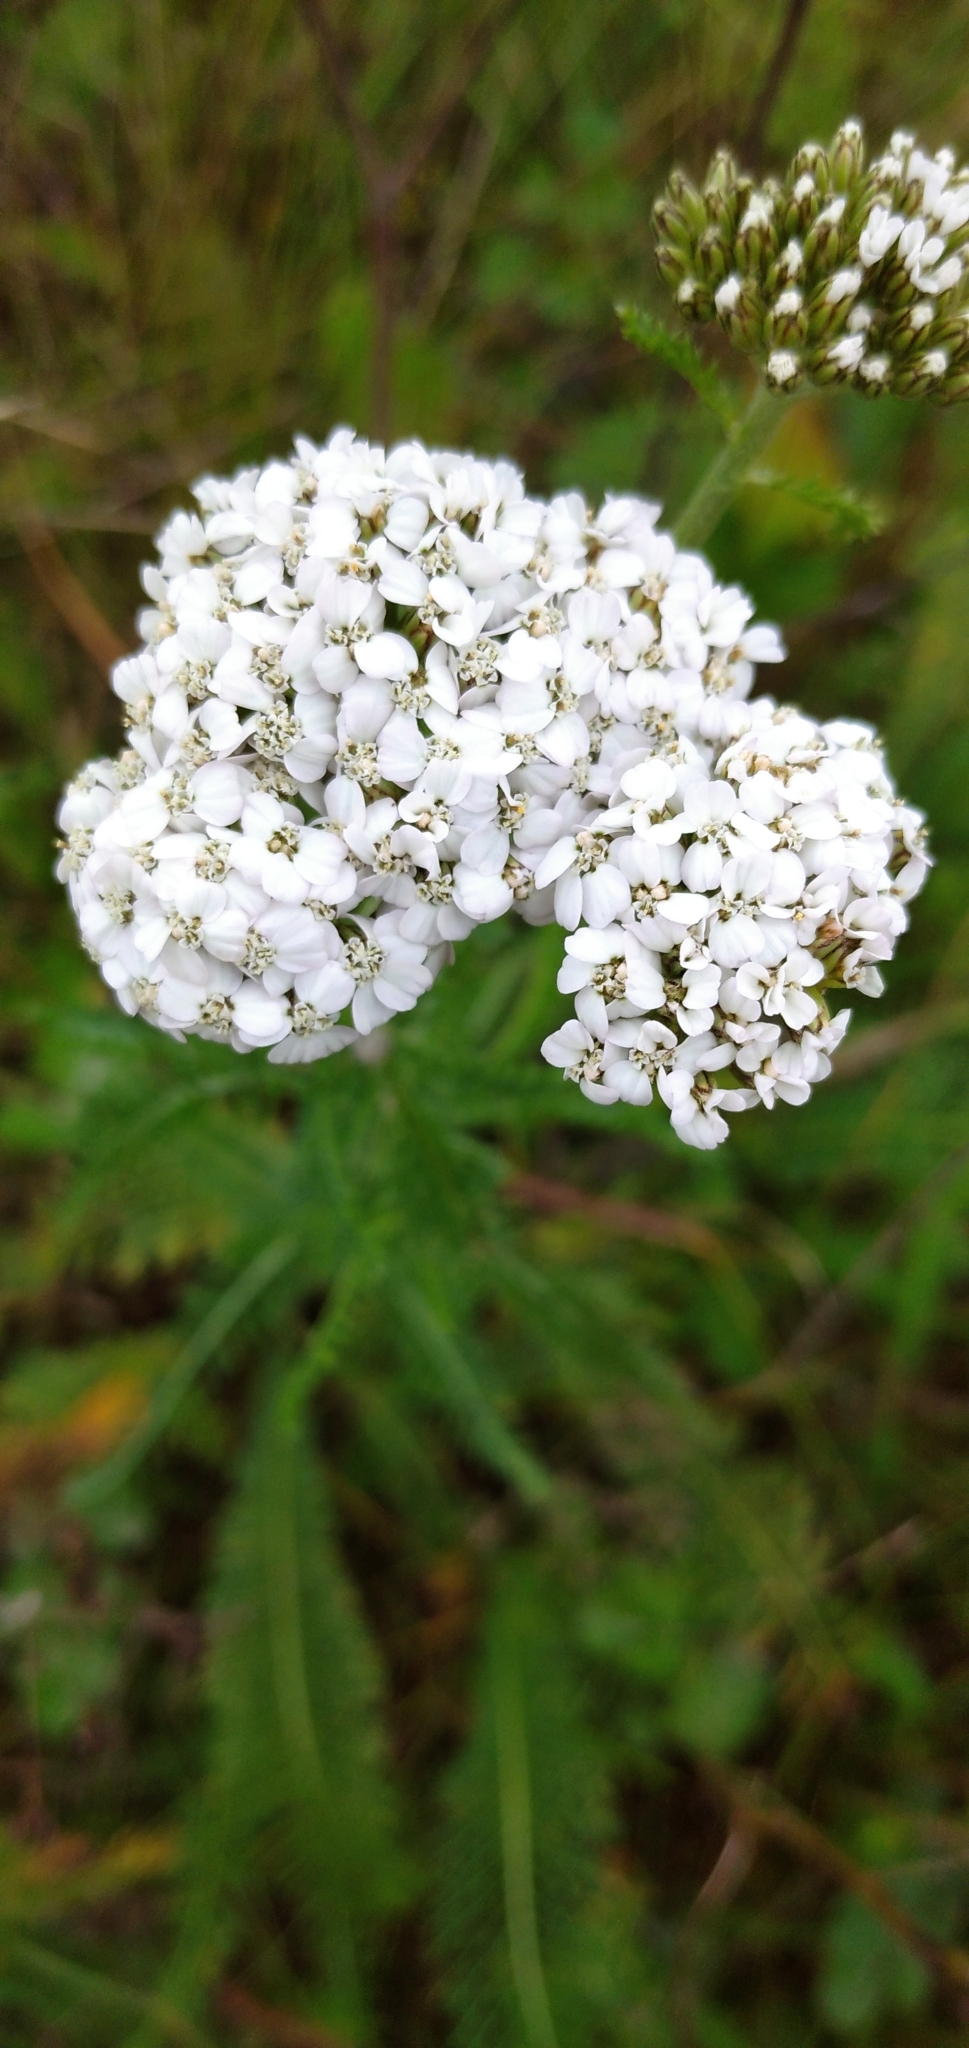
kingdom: Plantae
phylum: Tracheophyta
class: Magnoliopsida
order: Asterales
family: Asteraceae
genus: Achillea
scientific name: Achillea millefolium
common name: Yarrow
